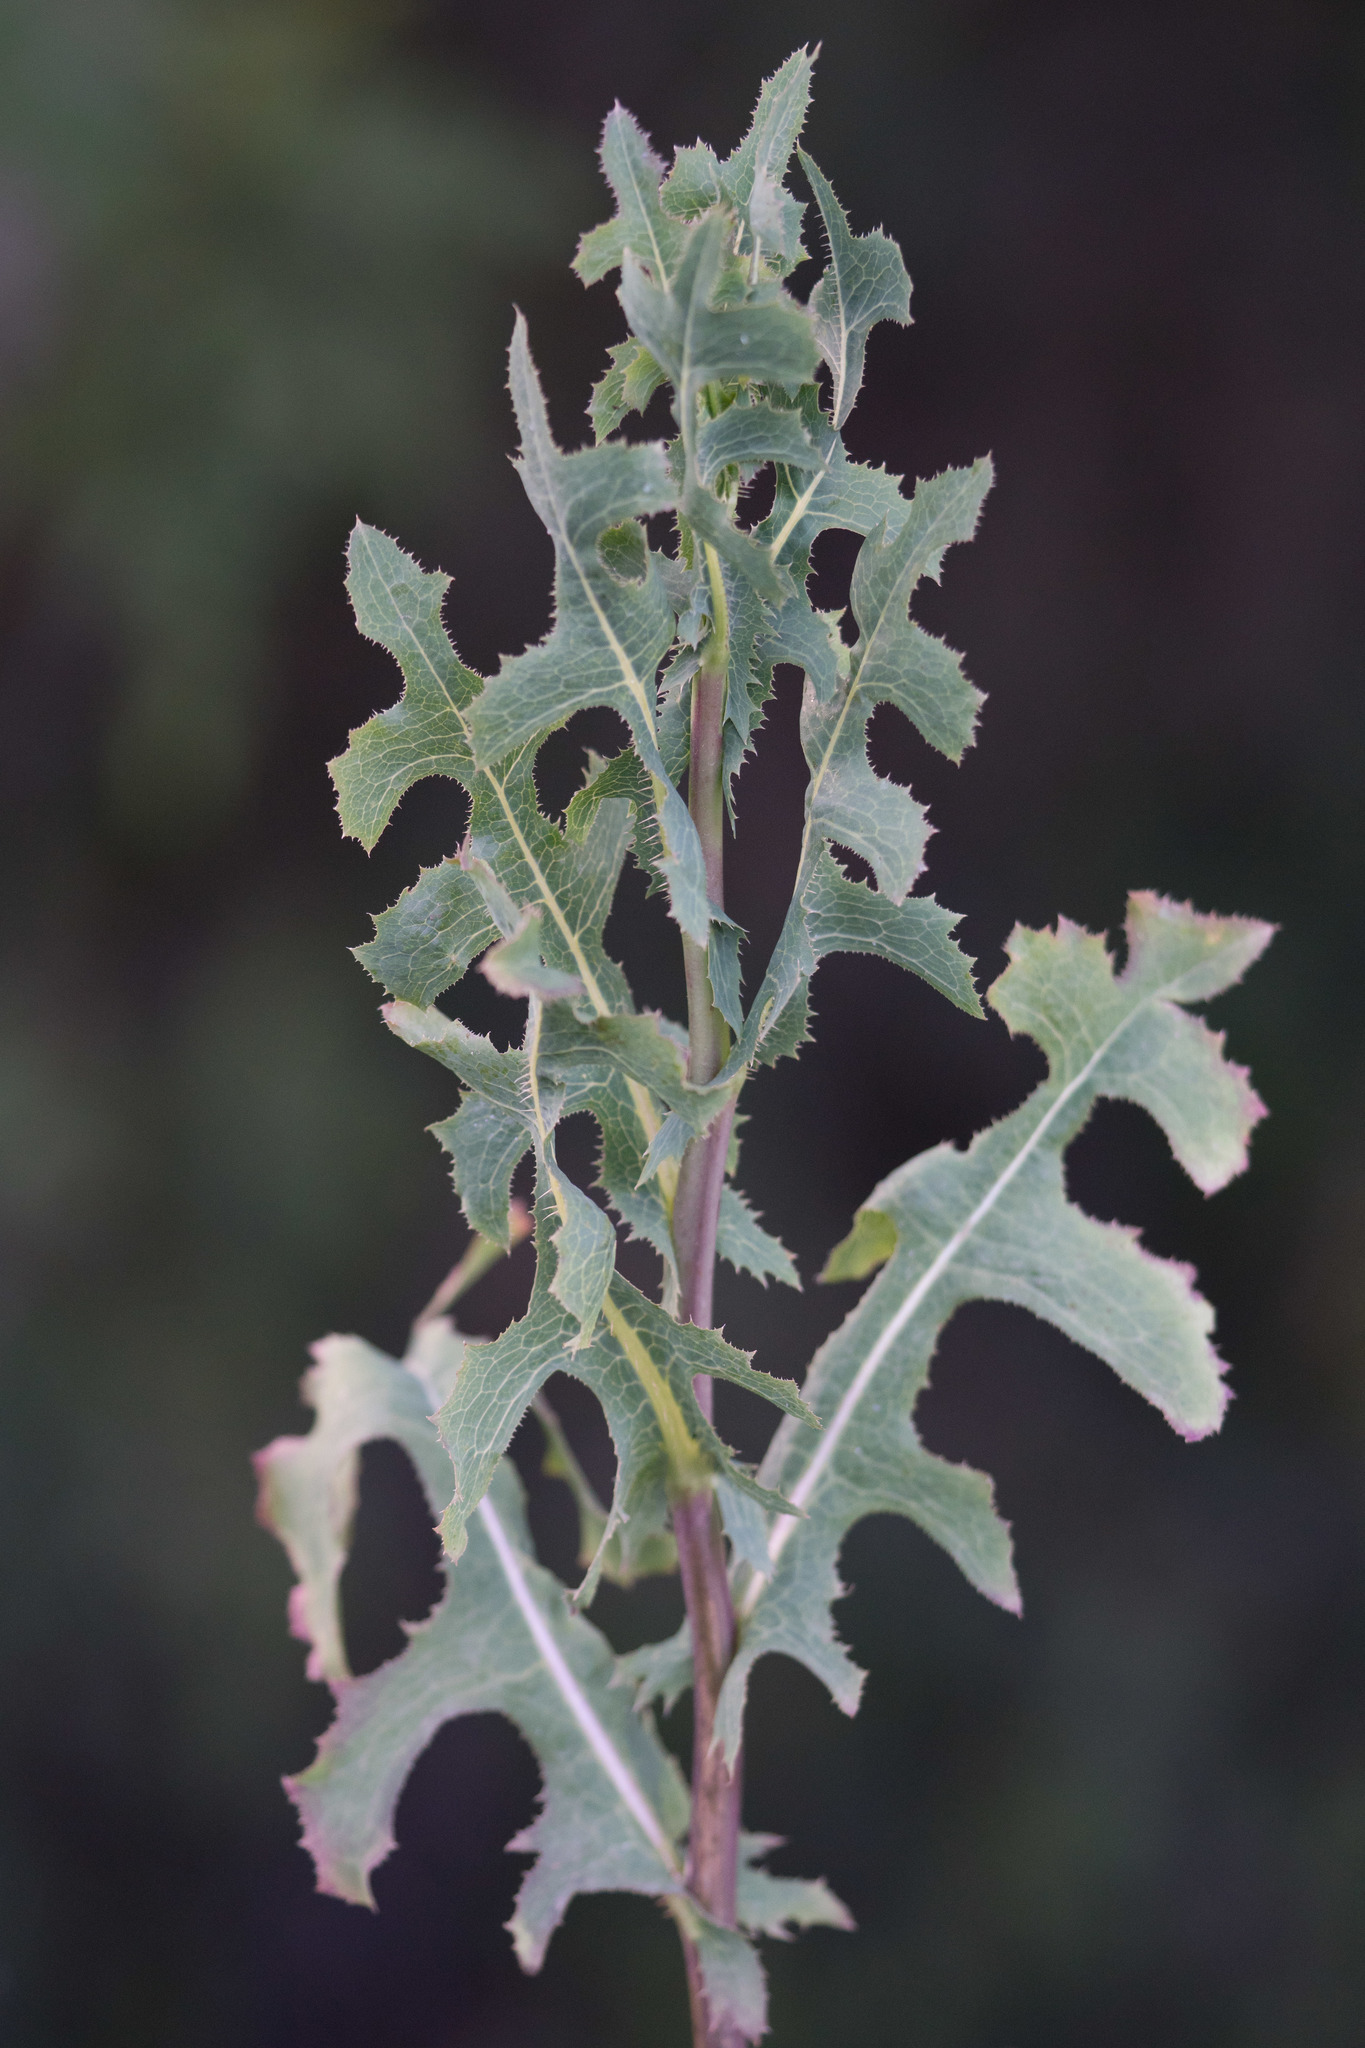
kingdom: Plantae
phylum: Tracheophyta
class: Magnoliopsida
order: Asterales
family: Asteraceae
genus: Lactuca
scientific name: Lactuca serriola
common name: Prickly lettuce
